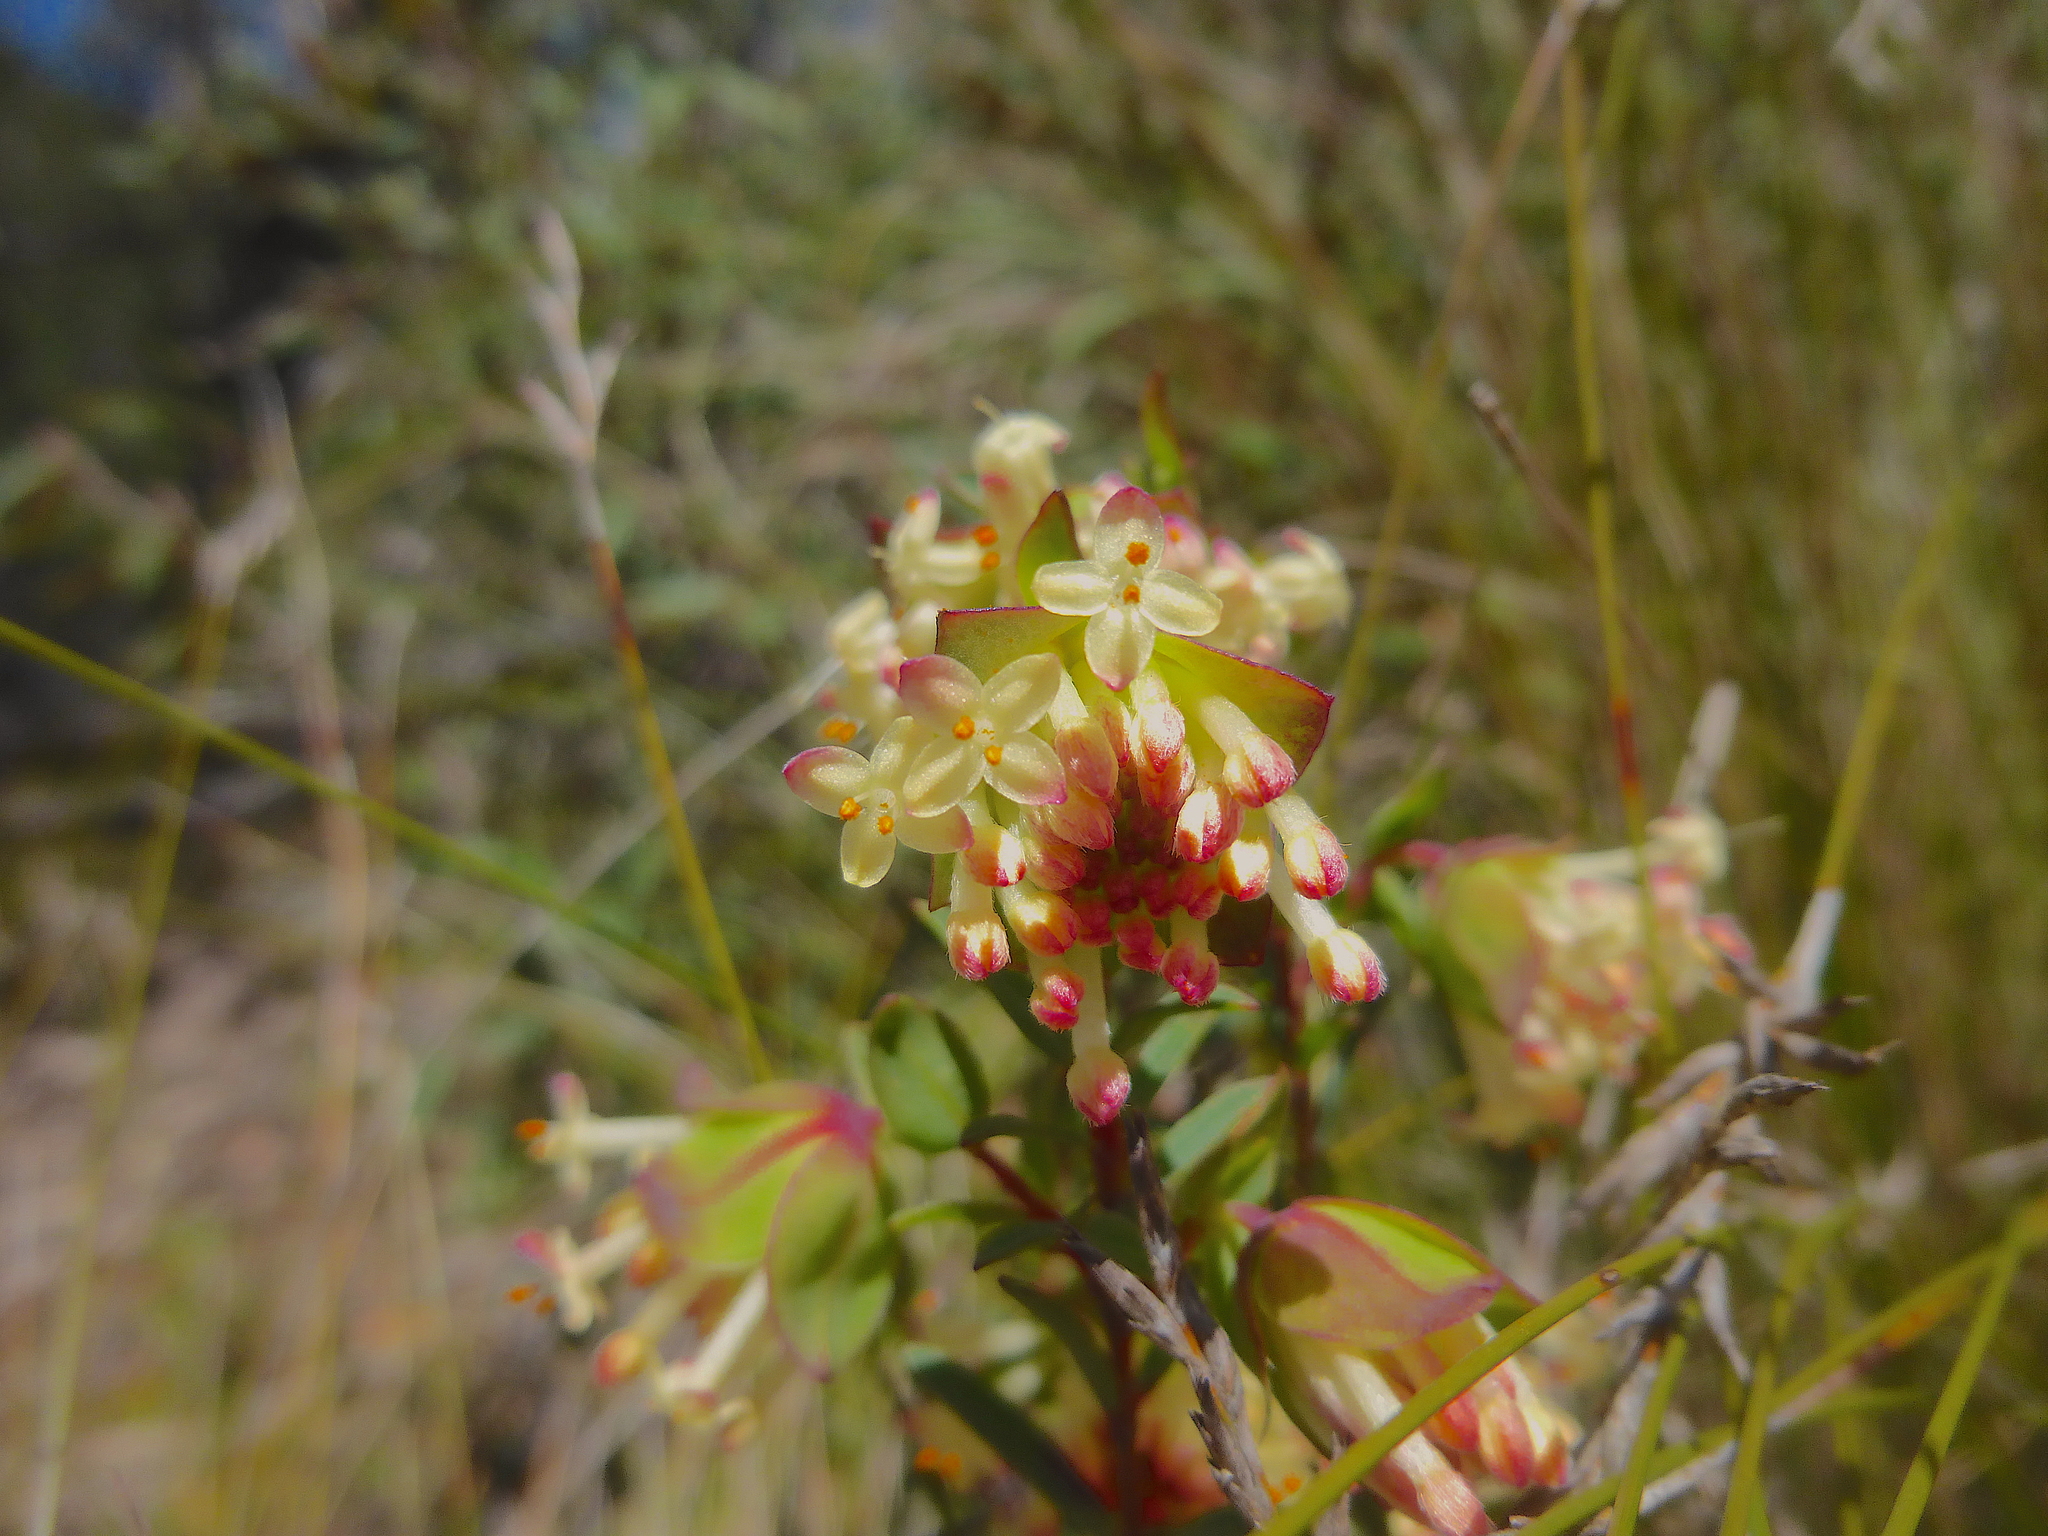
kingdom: Plantae
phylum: Tracheophyta
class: Magnoliopsida
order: Malvales
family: Thymelaeaceae
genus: Pimelea
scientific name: Pimelea linifolia
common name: Queen-of-the-bush
